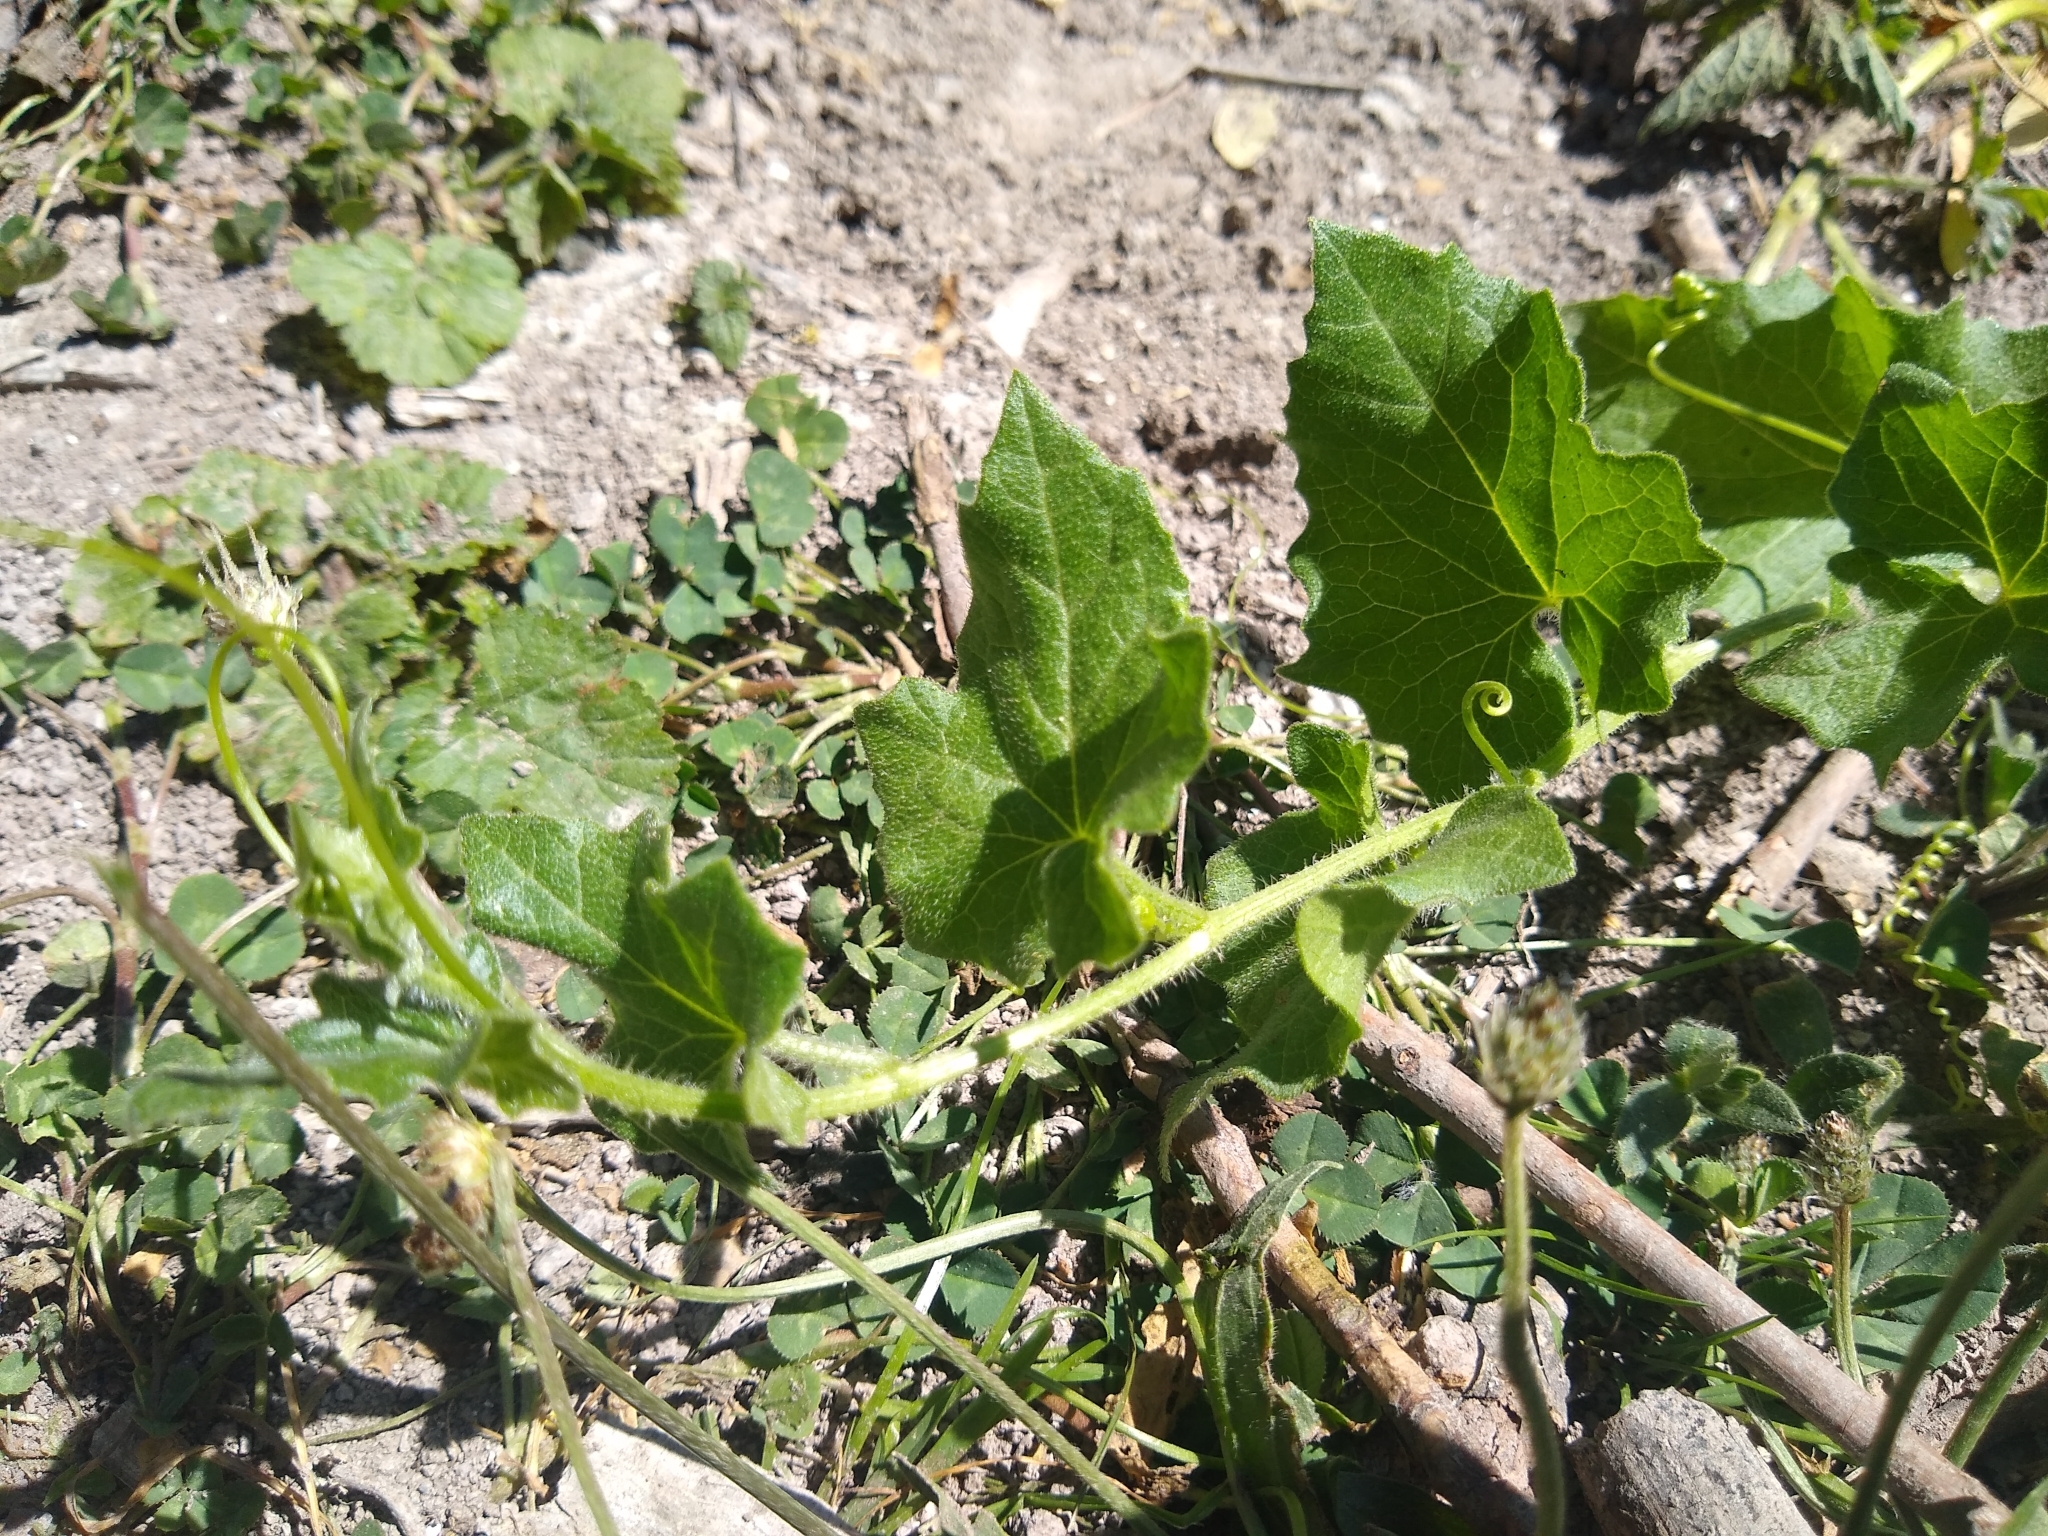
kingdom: Plantae
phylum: Tracheophyta
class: Magnoliopsida
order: Cucurbitales
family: Cucurbitaceae
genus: Bryonia
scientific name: Bryonia dioica
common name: White bryony
